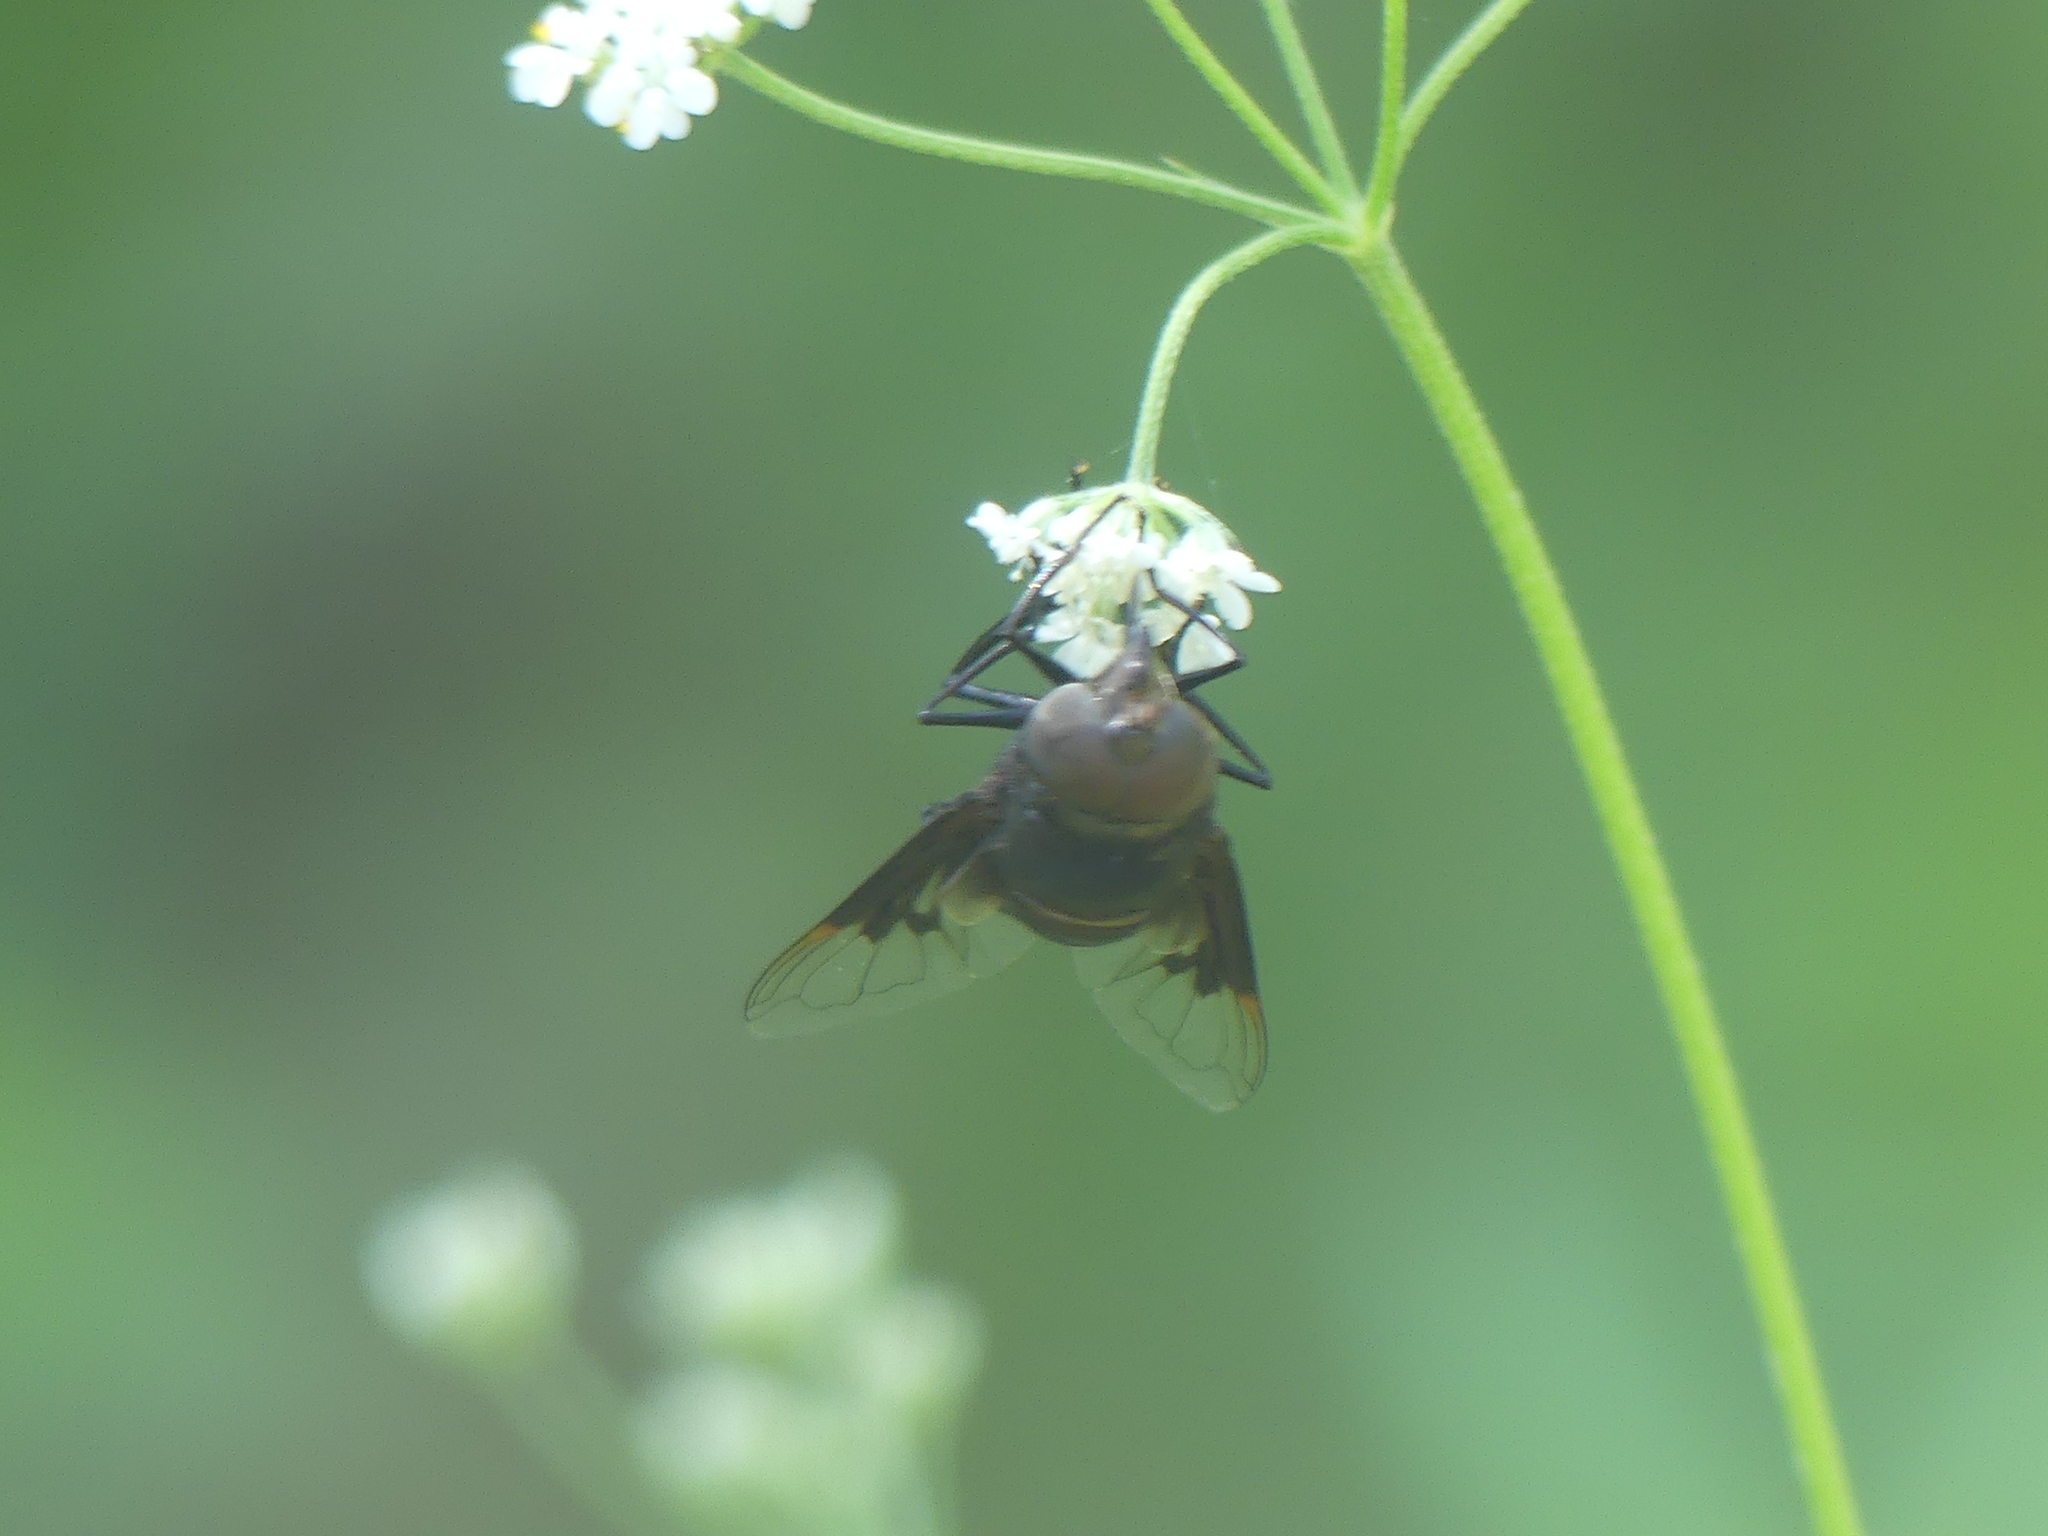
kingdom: Animalia
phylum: Arthropoda
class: Insecta
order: Diptera
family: Syrphidae
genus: Copestylum
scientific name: Copestylum mexicanum
